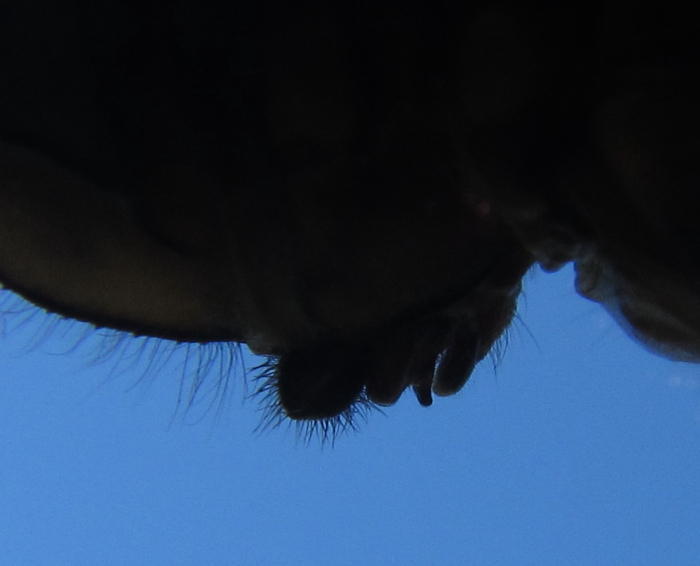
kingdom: Animalia
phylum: Arthropoda
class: Insecta
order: Odonata
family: Libellulidae
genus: Orthetrum
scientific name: Orthetrum julia
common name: Julia skimmer
